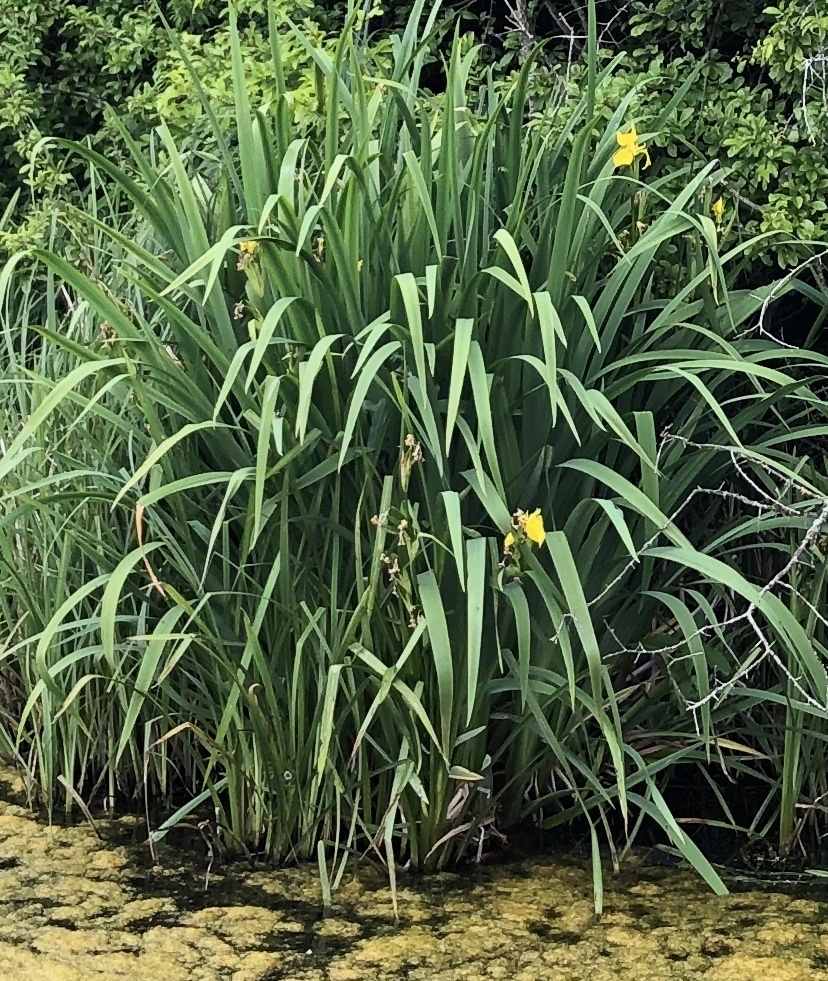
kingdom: Plantae
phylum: Tracheophyta
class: Liliopsida
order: Asparagales
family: Iridaceae
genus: Iris
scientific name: Iris pseudacorus
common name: Yellow flag
